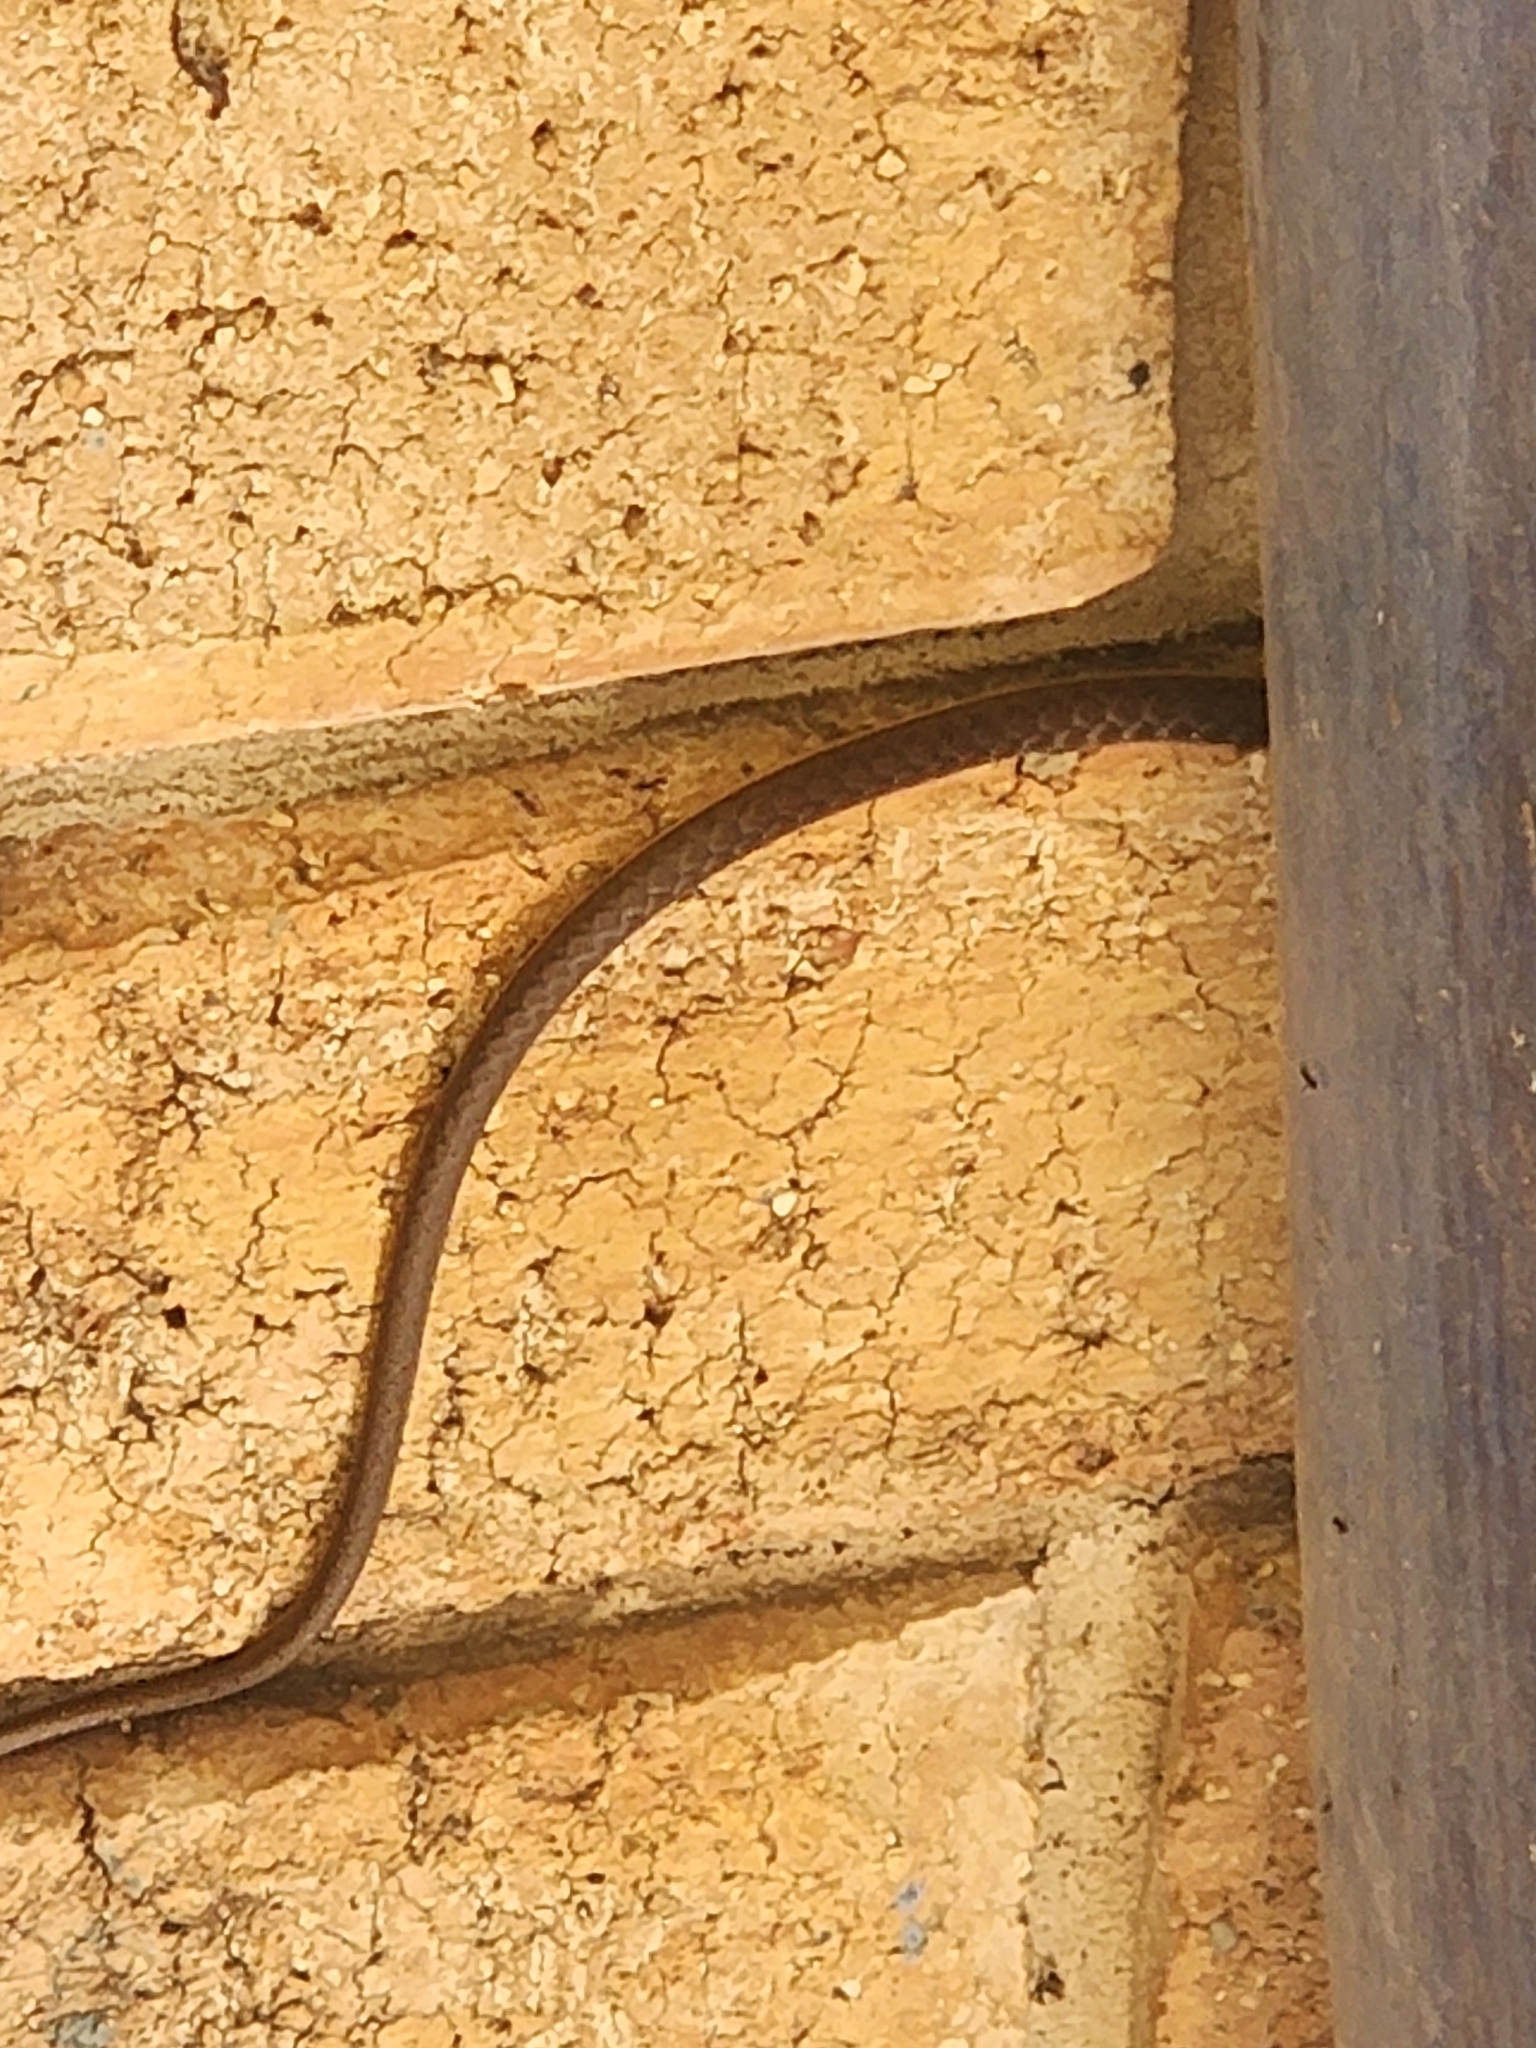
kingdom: Animalia
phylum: Chordata
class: Squamata
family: Colubridae
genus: Dendrelaphis
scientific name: Dendrelaphis punctulatus
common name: Common tree snake
